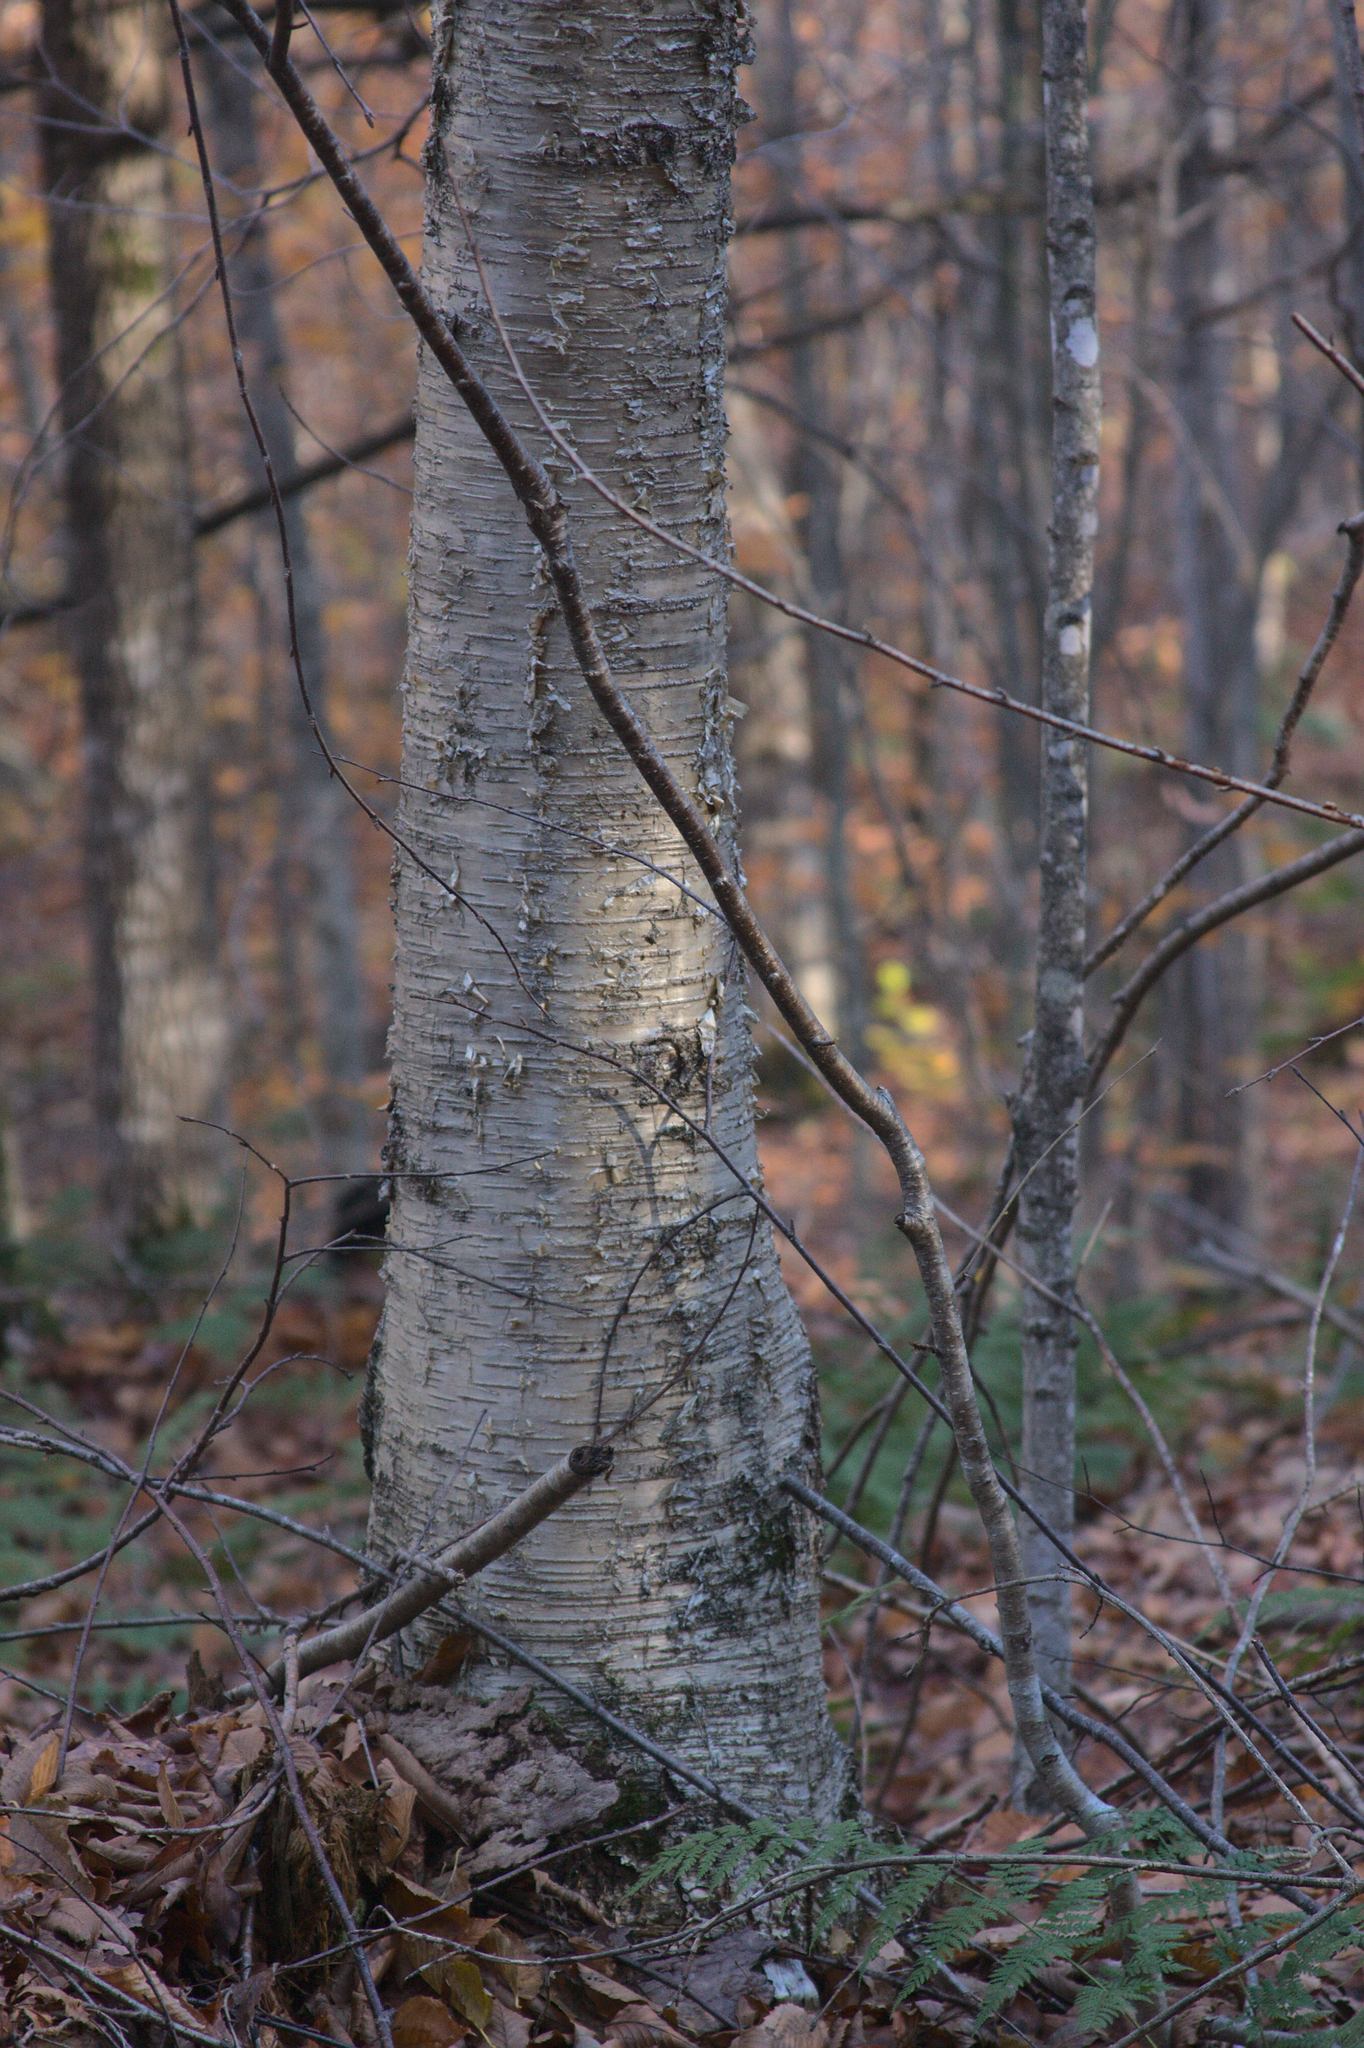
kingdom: Plantae
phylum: Tracheophyta
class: Magnoliopsida
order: Fagales
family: Betulaceae
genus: Betula
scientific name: Betula alleghaniensis
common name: Yellow birch
